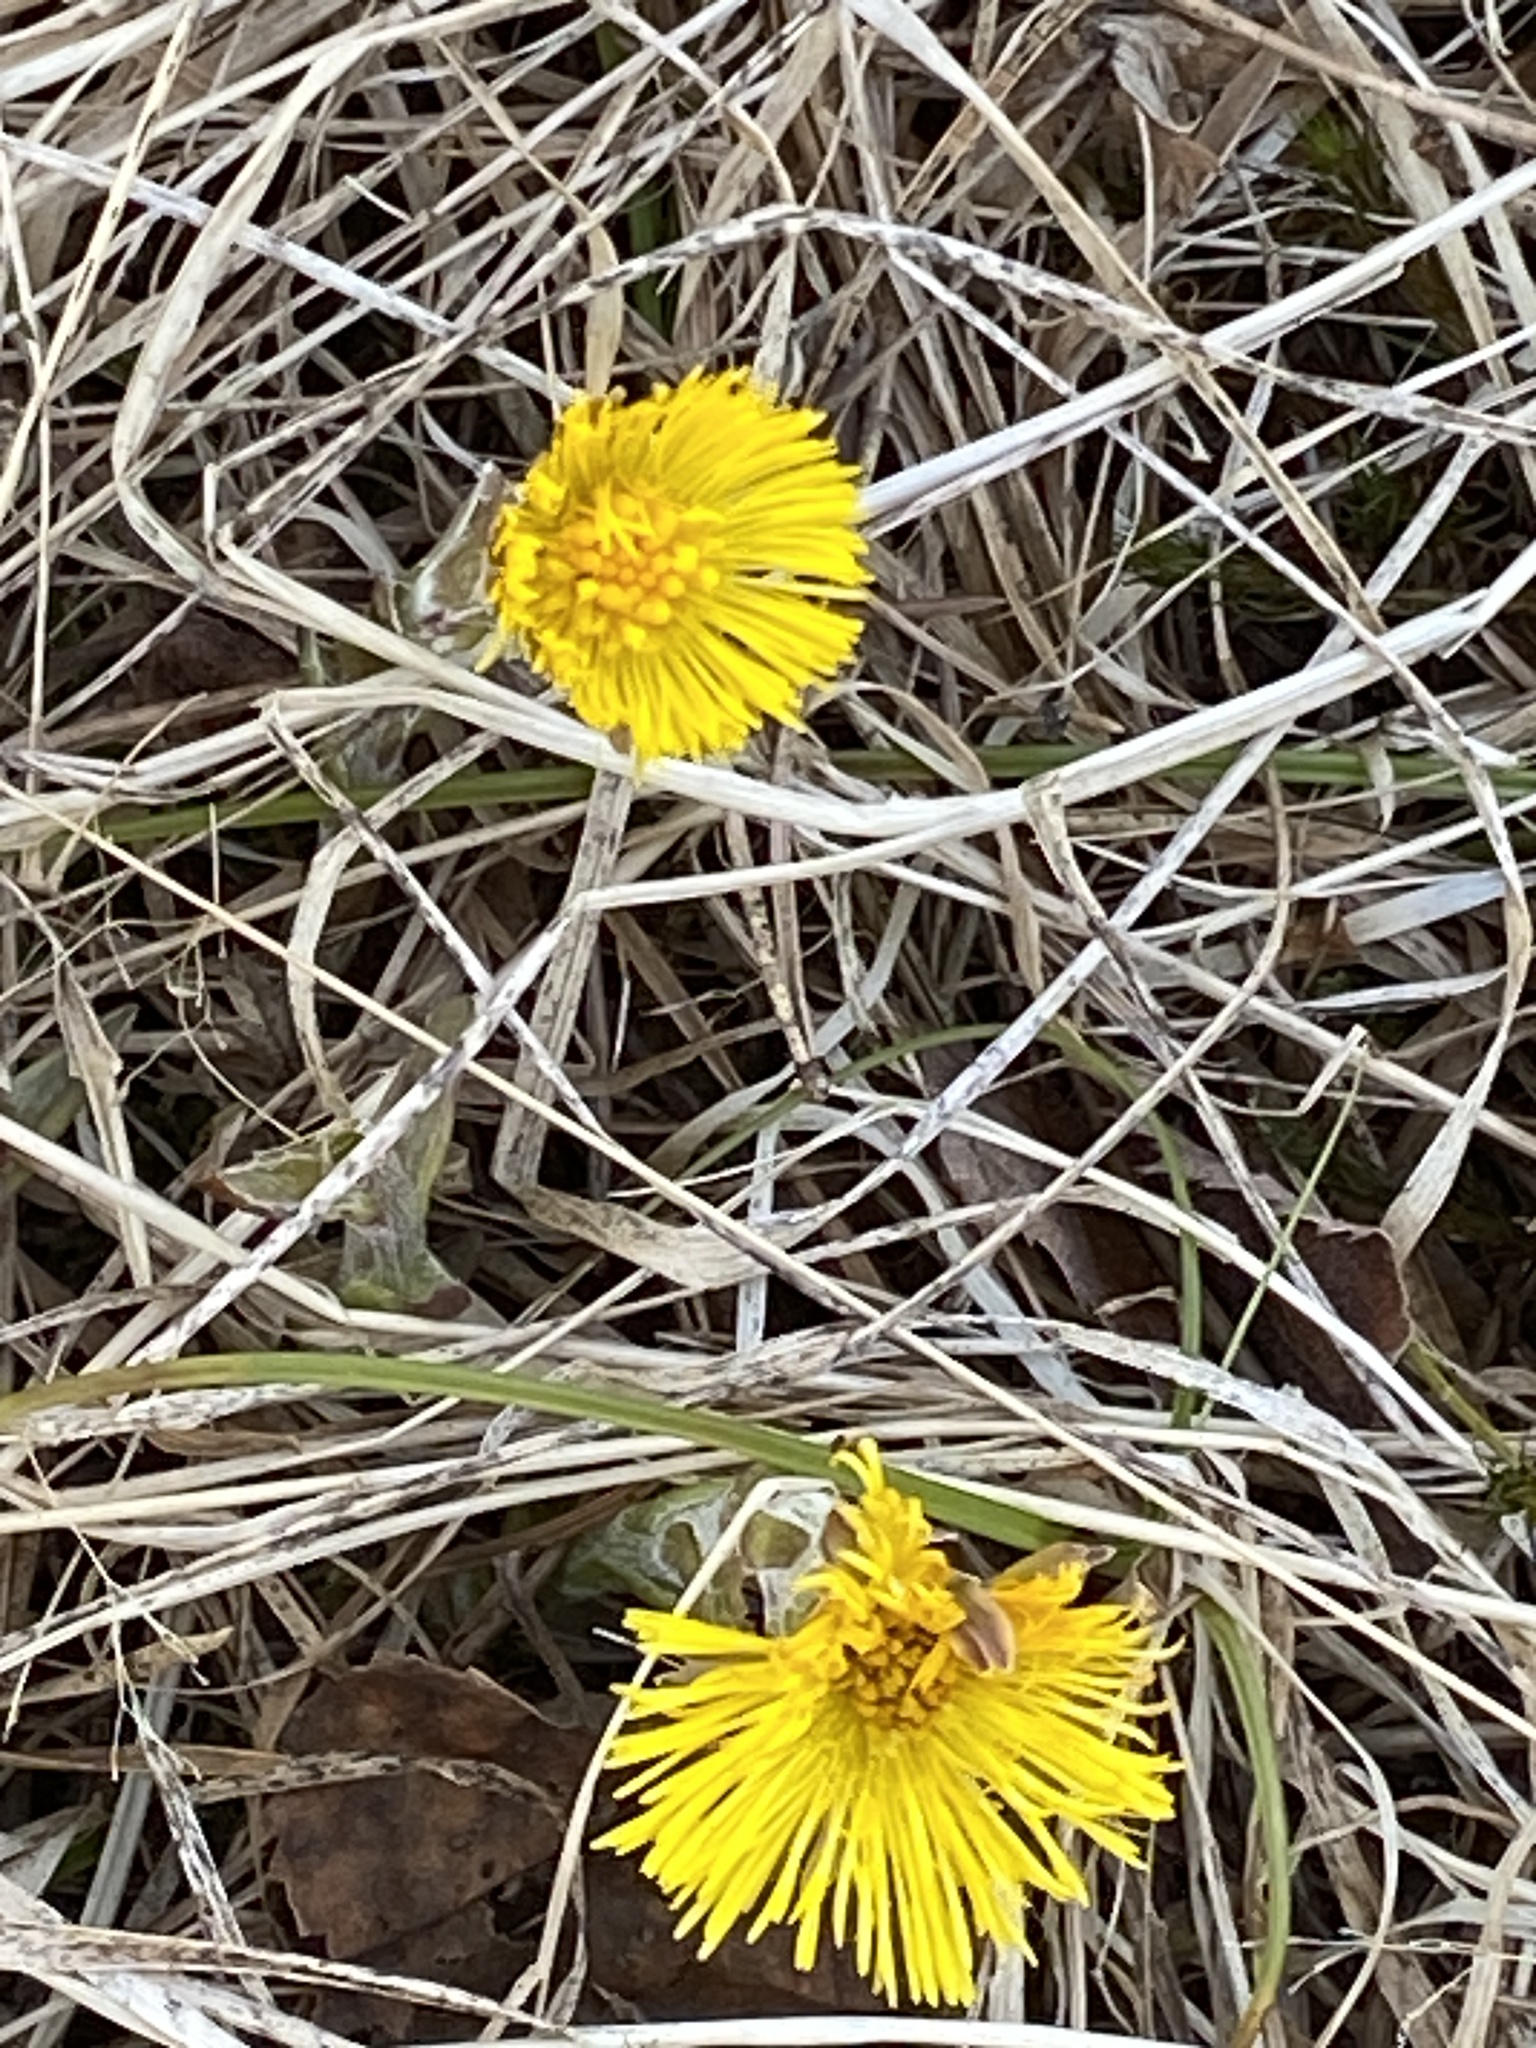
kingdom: Plantae
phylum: Tracheophyta
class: Magnoliopsida
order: Asterales
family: Asteraceae
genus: Tussilago
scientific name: Tussilago farfara
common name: Coltsfoot
